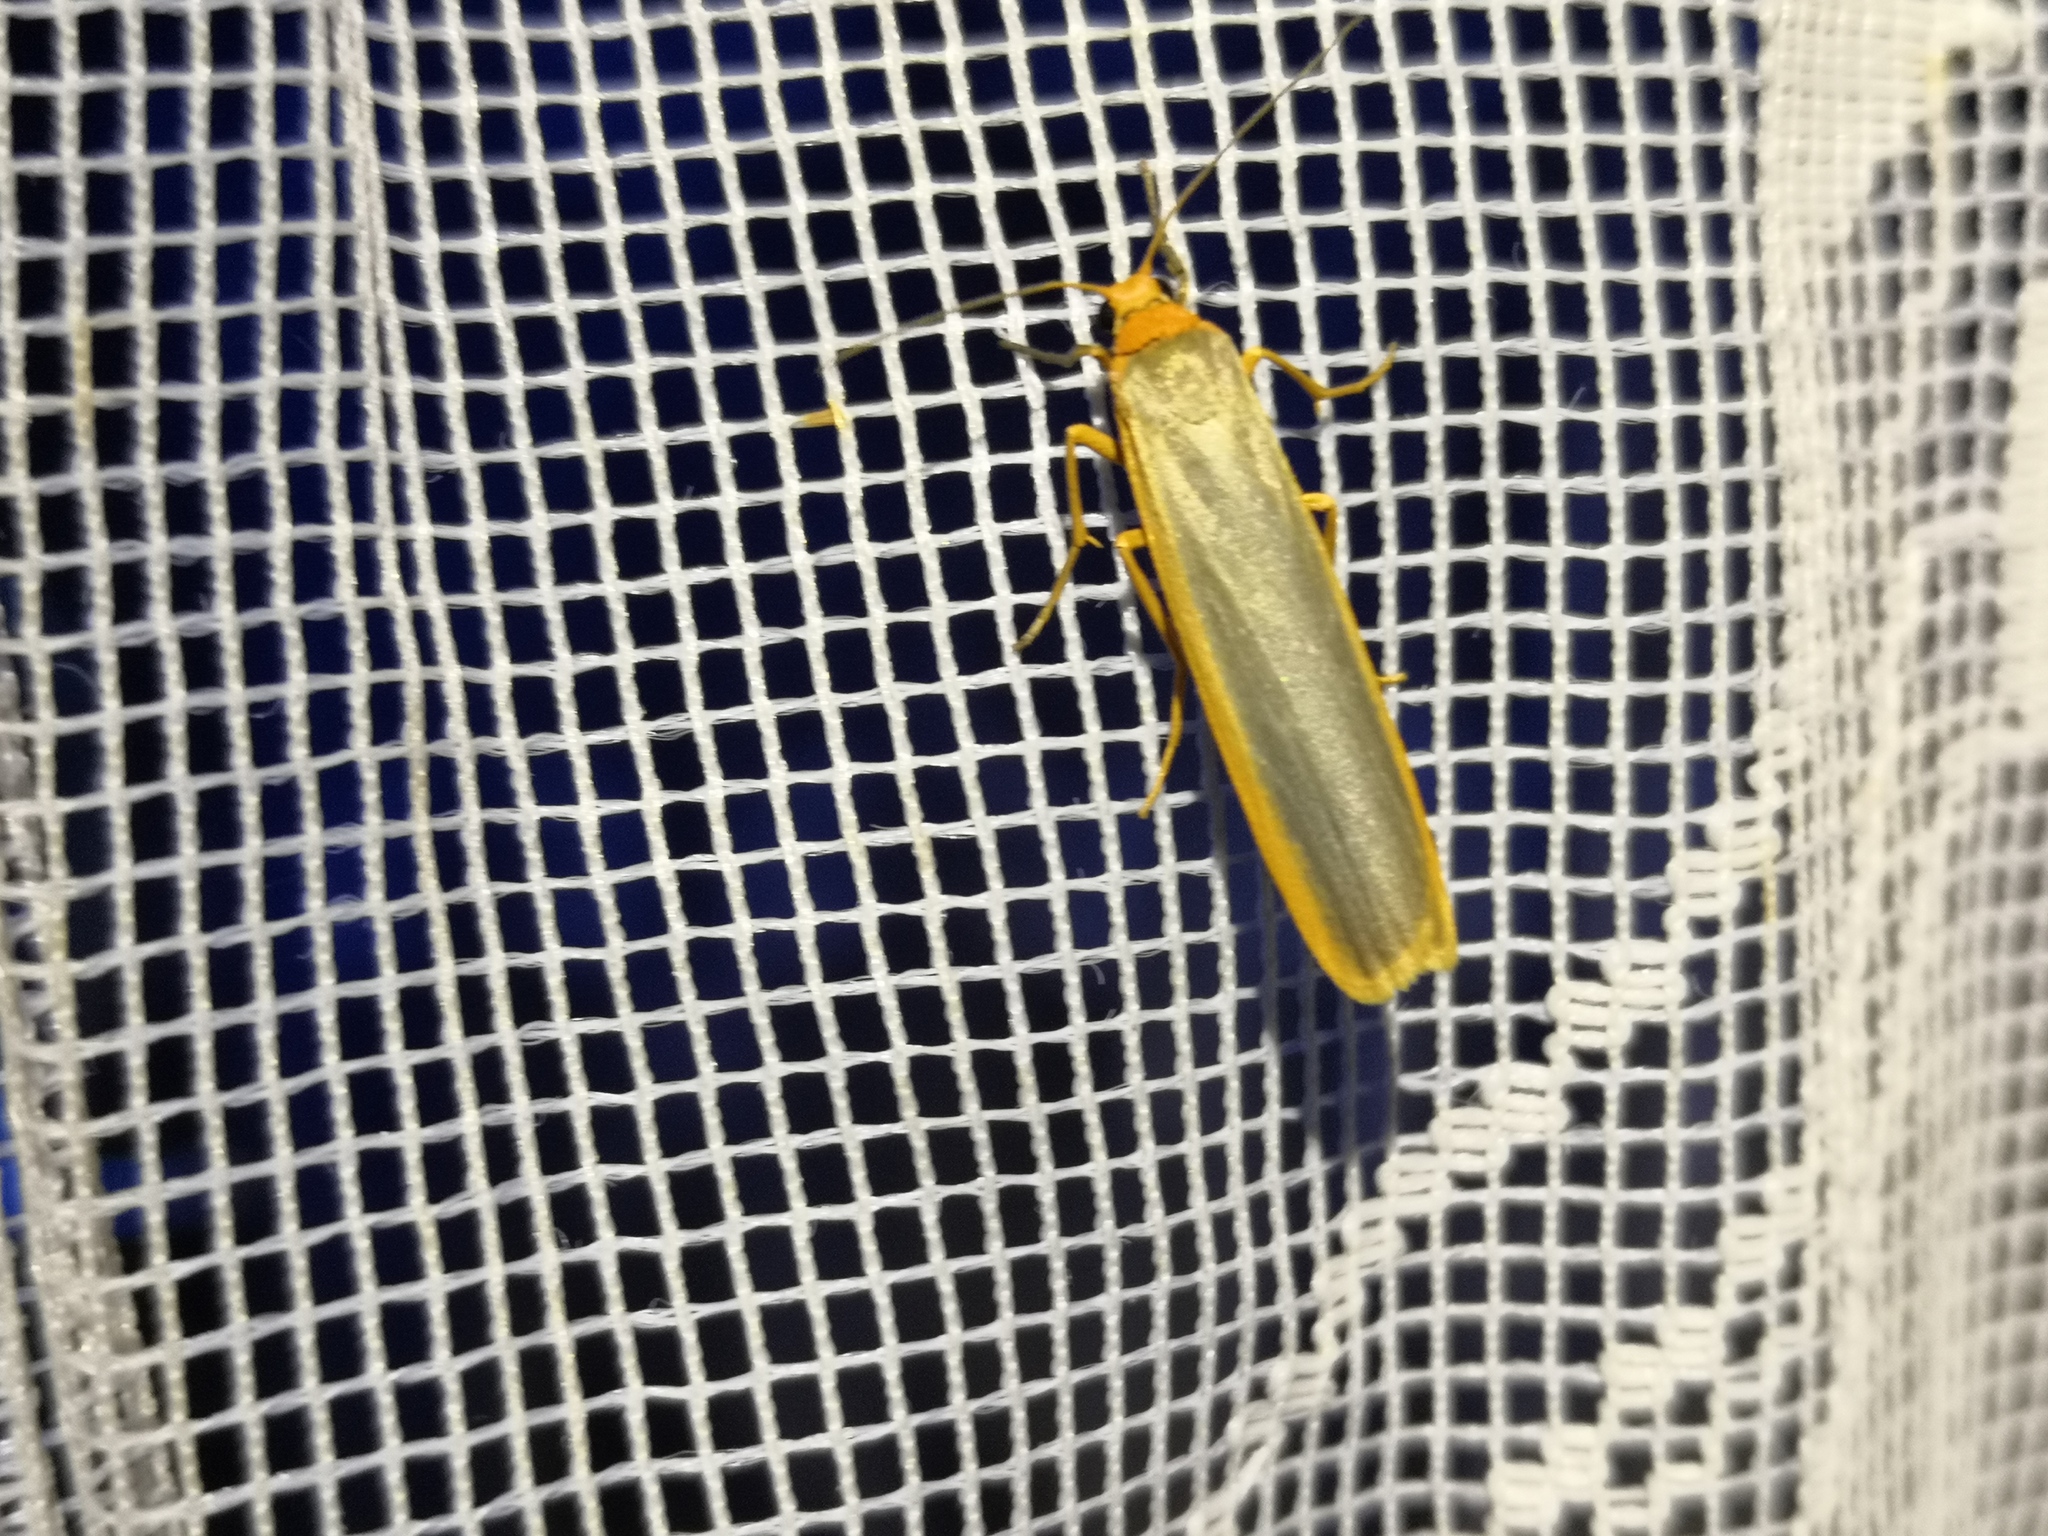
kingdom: Animalia
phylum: Arthropoda
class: Insecta
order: Lepidoptera
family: Erebidae
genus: Manulea
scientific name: Manulea complana
